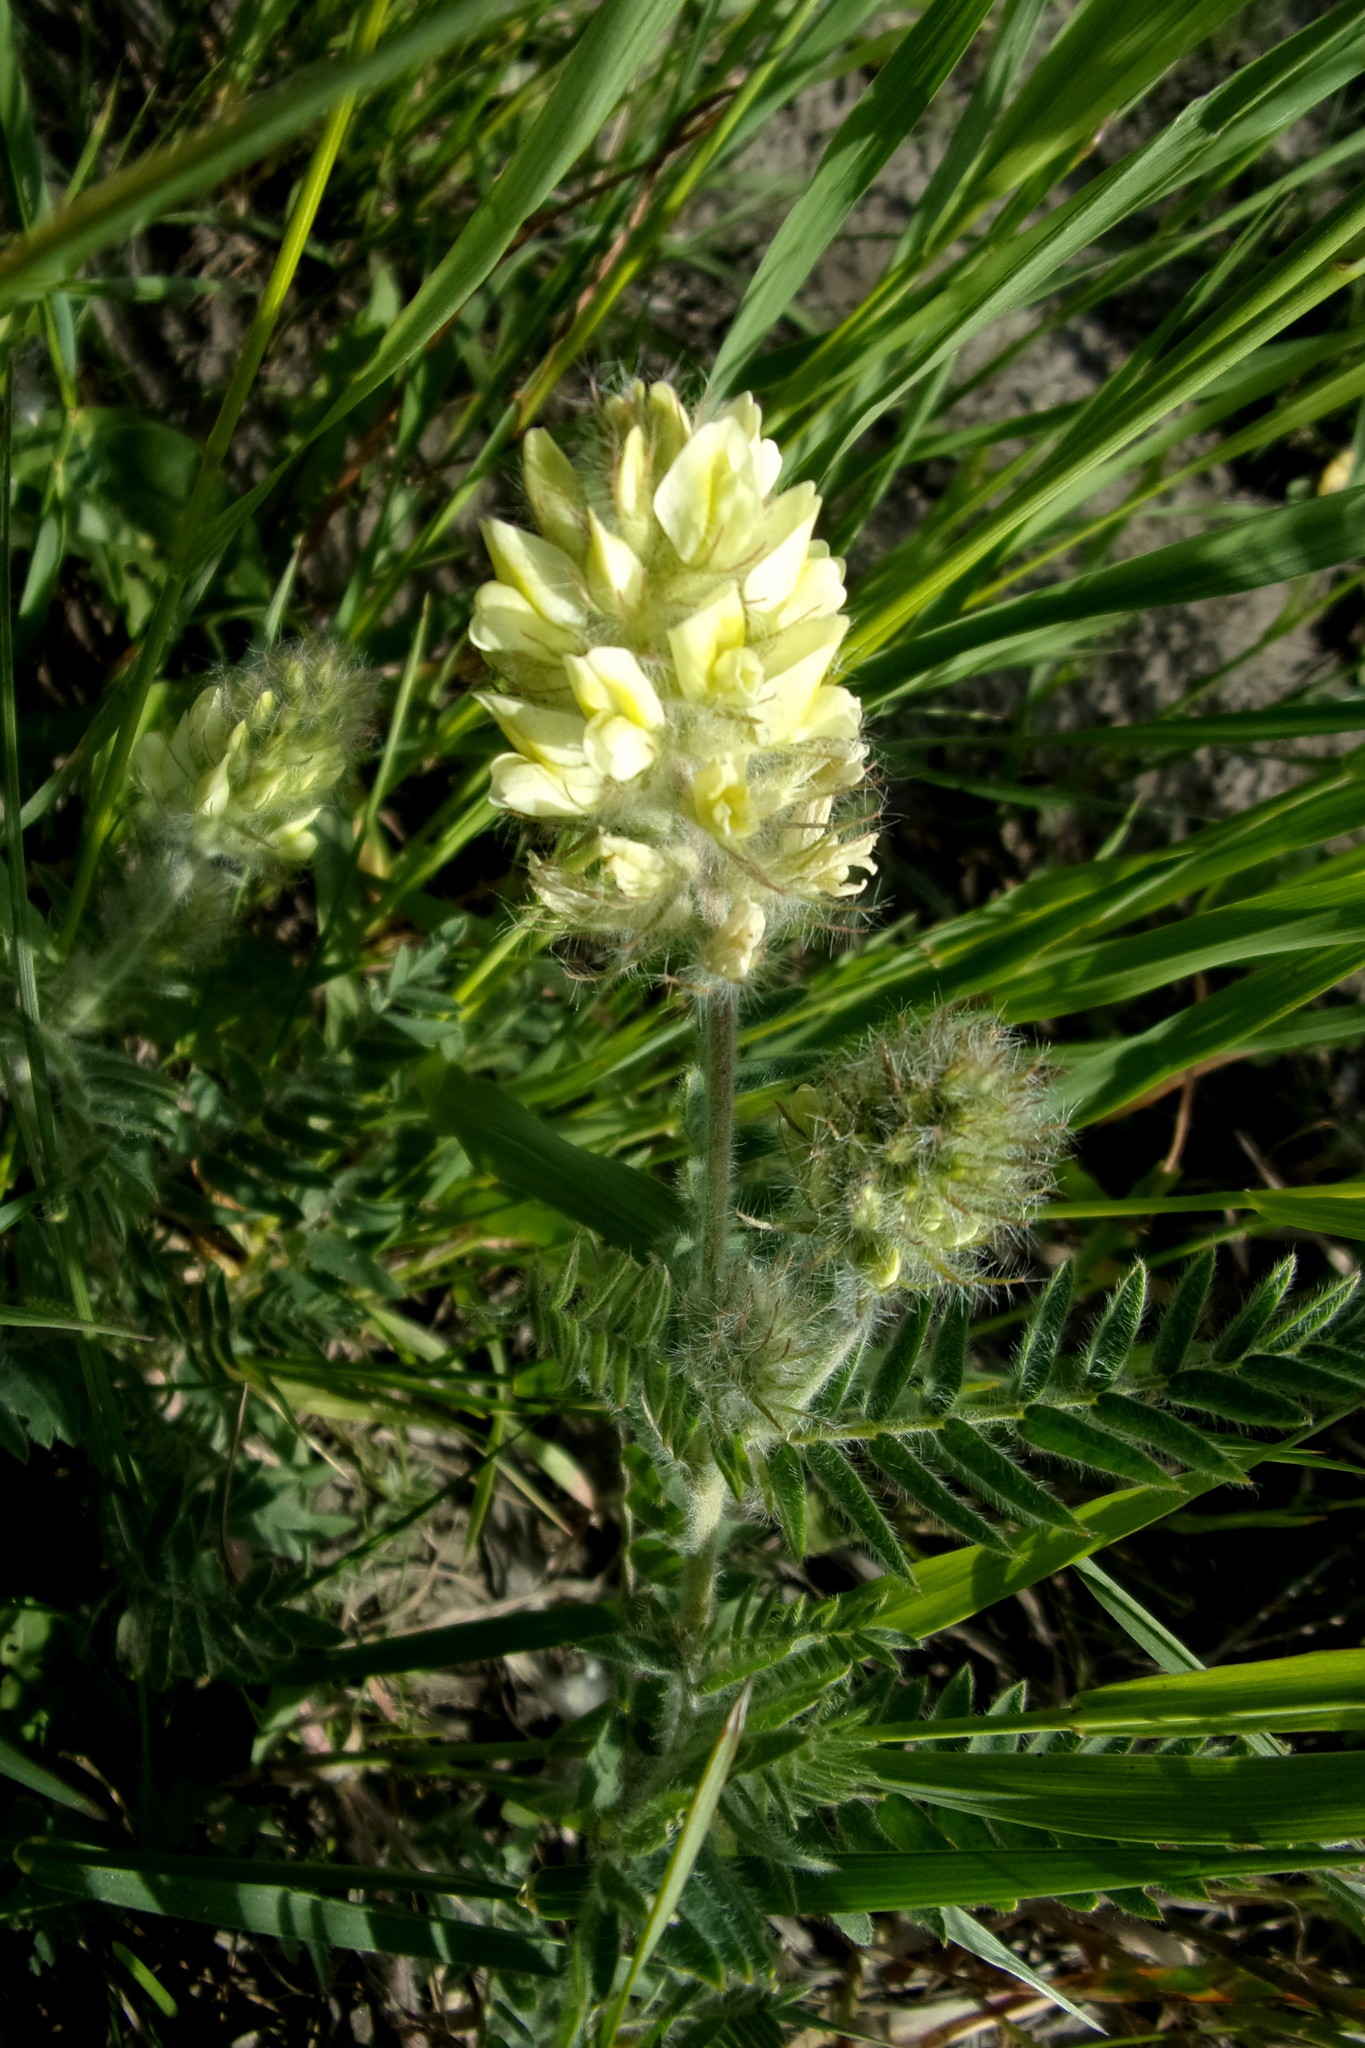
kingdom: Plantae
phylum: Tracheophyta
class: Magnoliopsida
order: Fabales
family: Fabaceae
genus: Oxytropis
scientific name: Oxytropis pilosa
